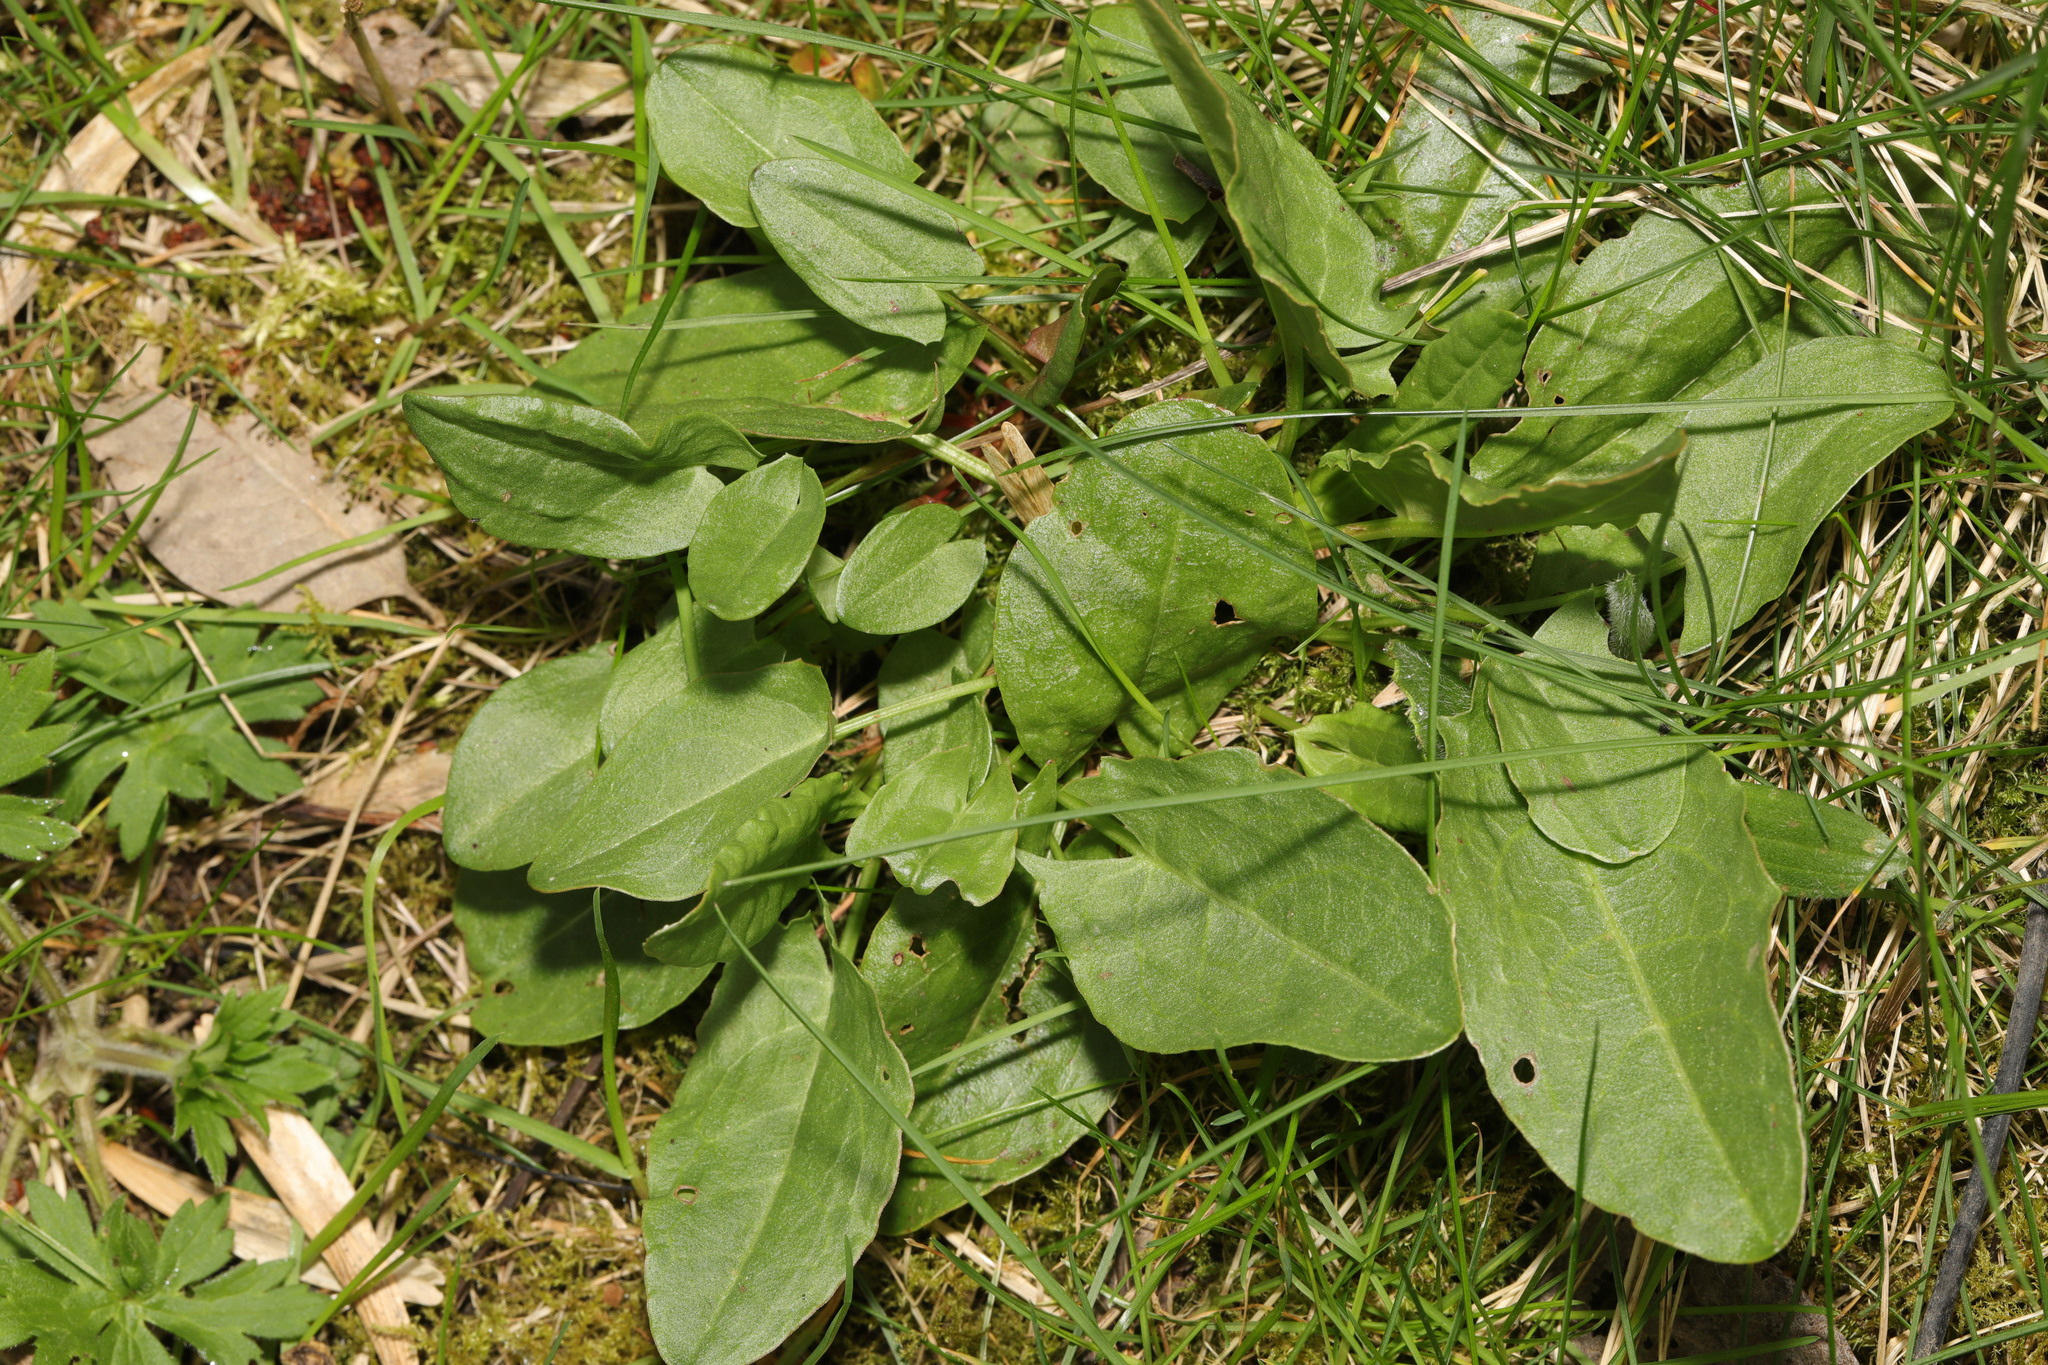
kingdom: Plantae
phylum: Tracheophyta
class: Magnoliopsida
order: Caryophyllales
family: Polygonaceae
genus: Rumex
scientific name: Rumex acetosa
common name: Garden sorrel
